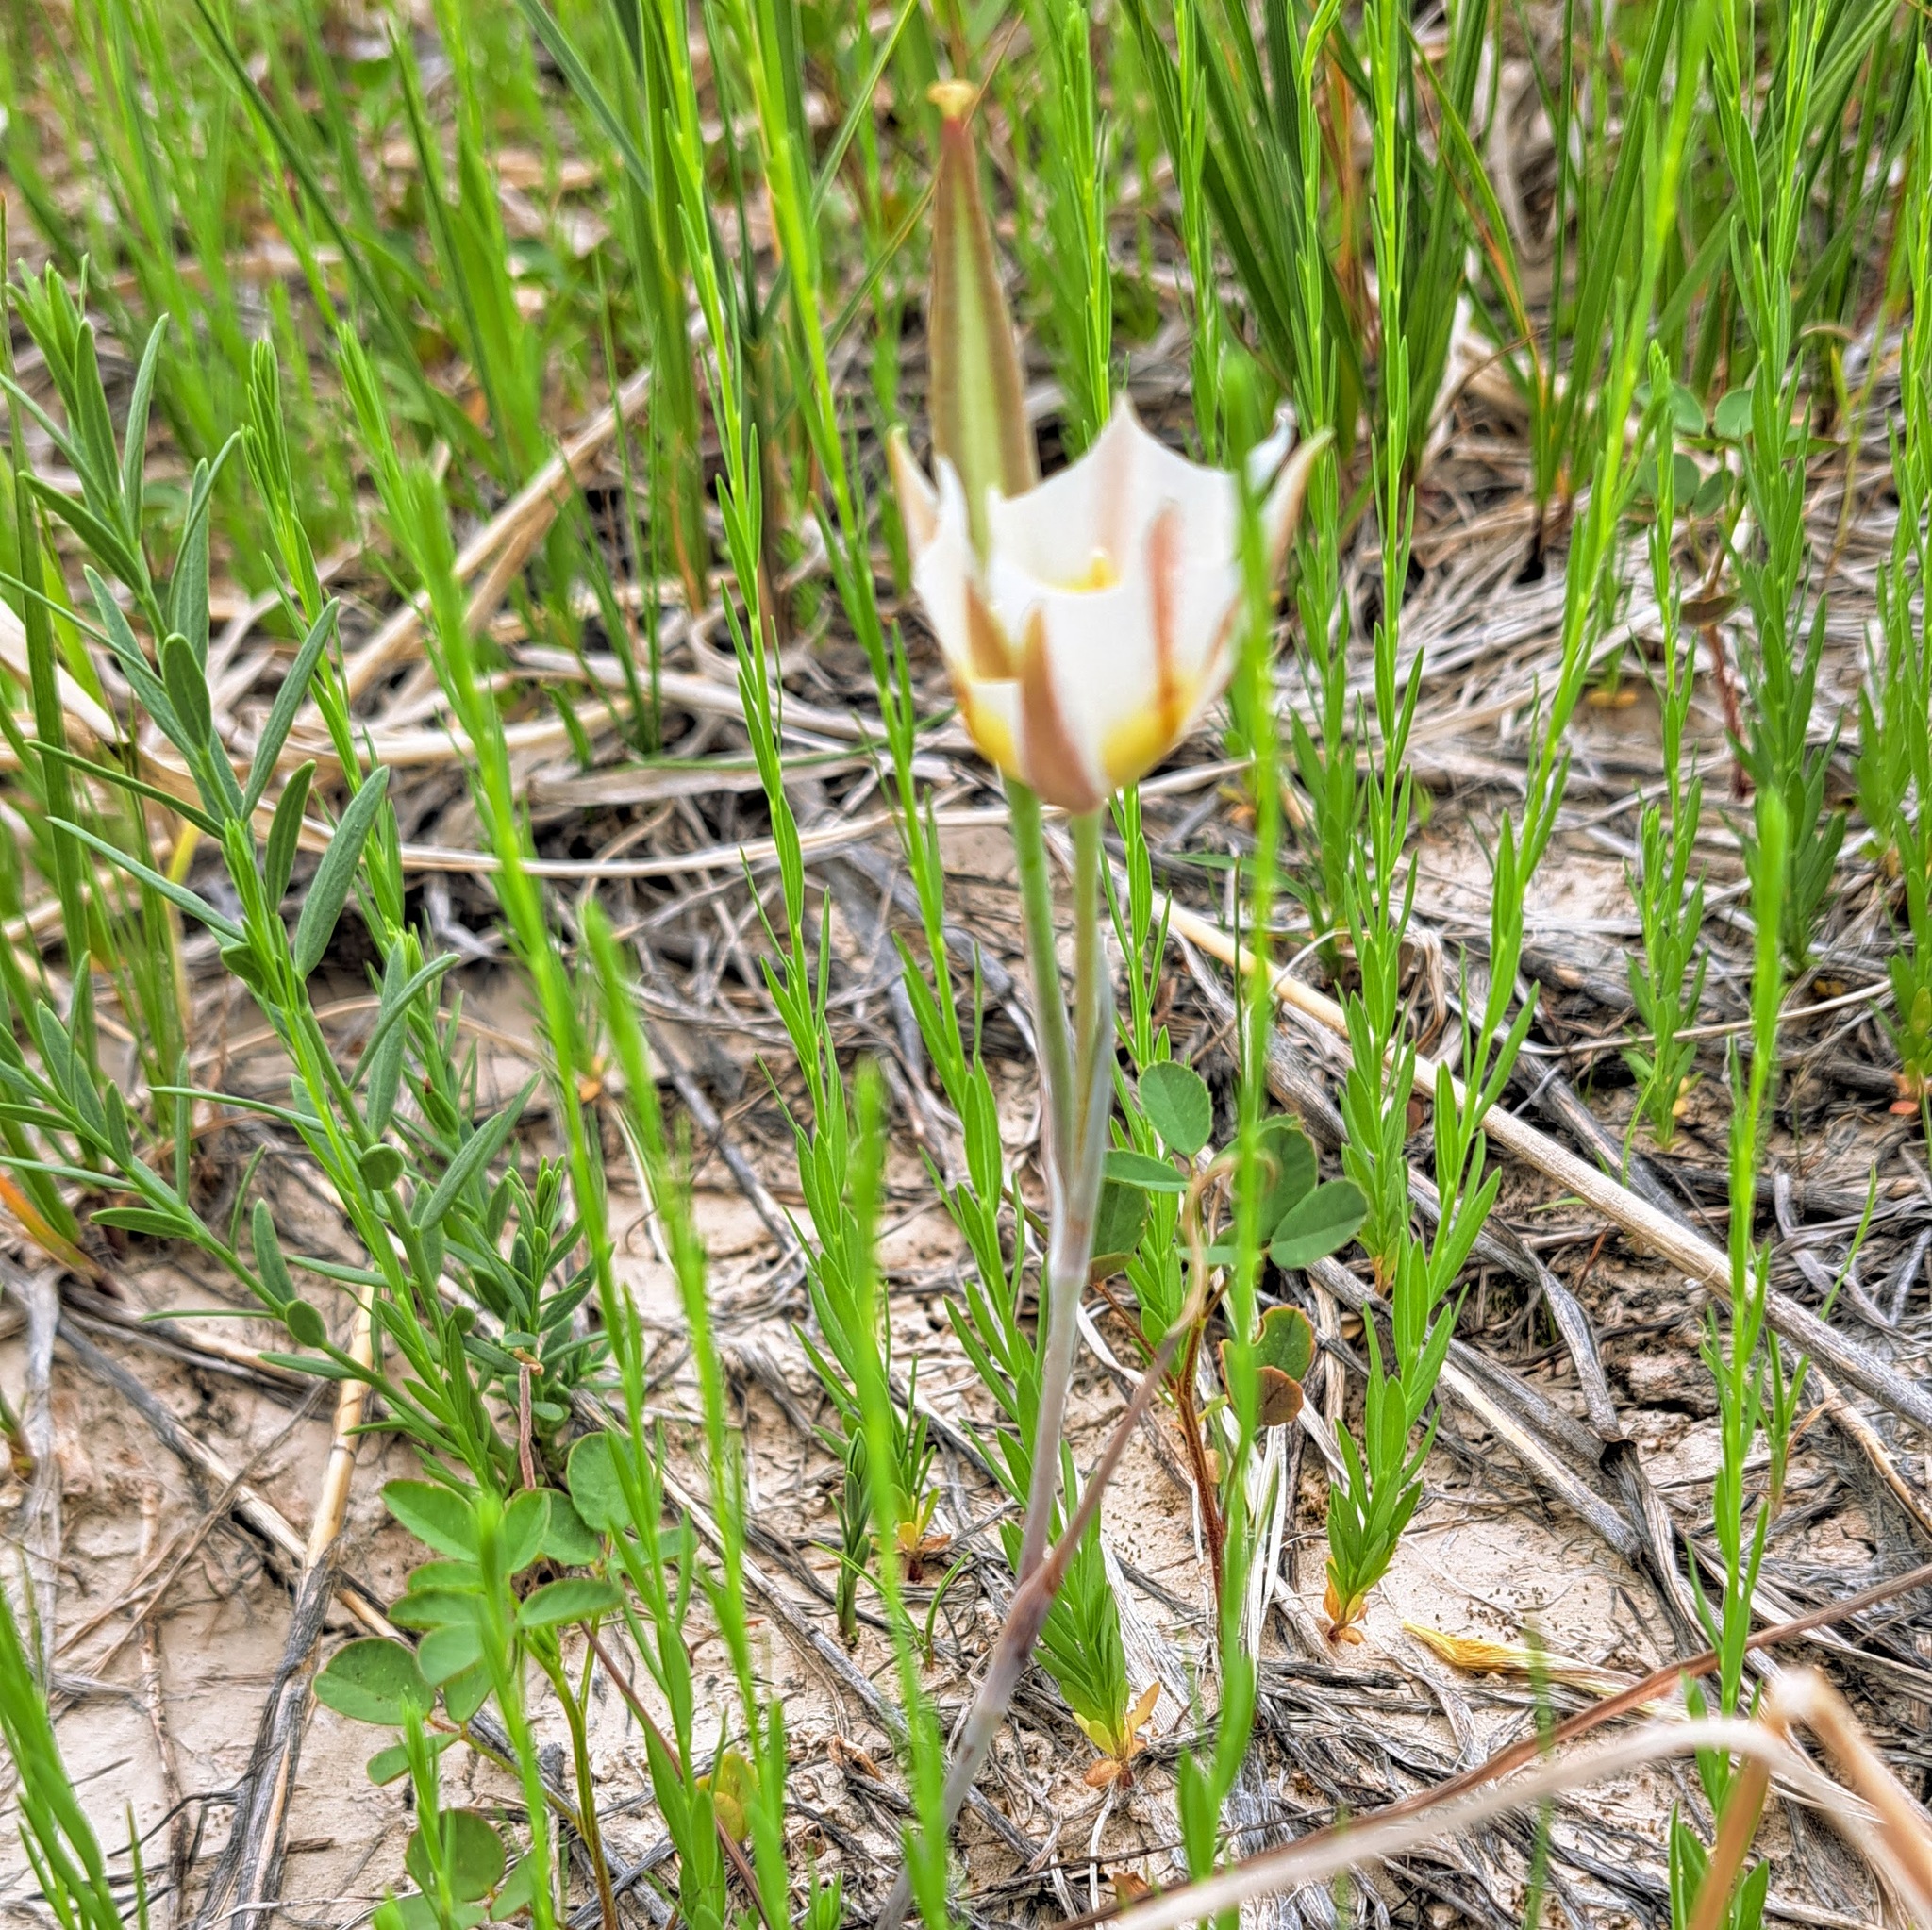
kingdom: Plantae
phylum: Tracheophyta
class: Liliopsida
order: Liliales
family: Liliaceae
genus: Calochortus
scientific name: Calochortus nuttallii
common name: Sego-lily
